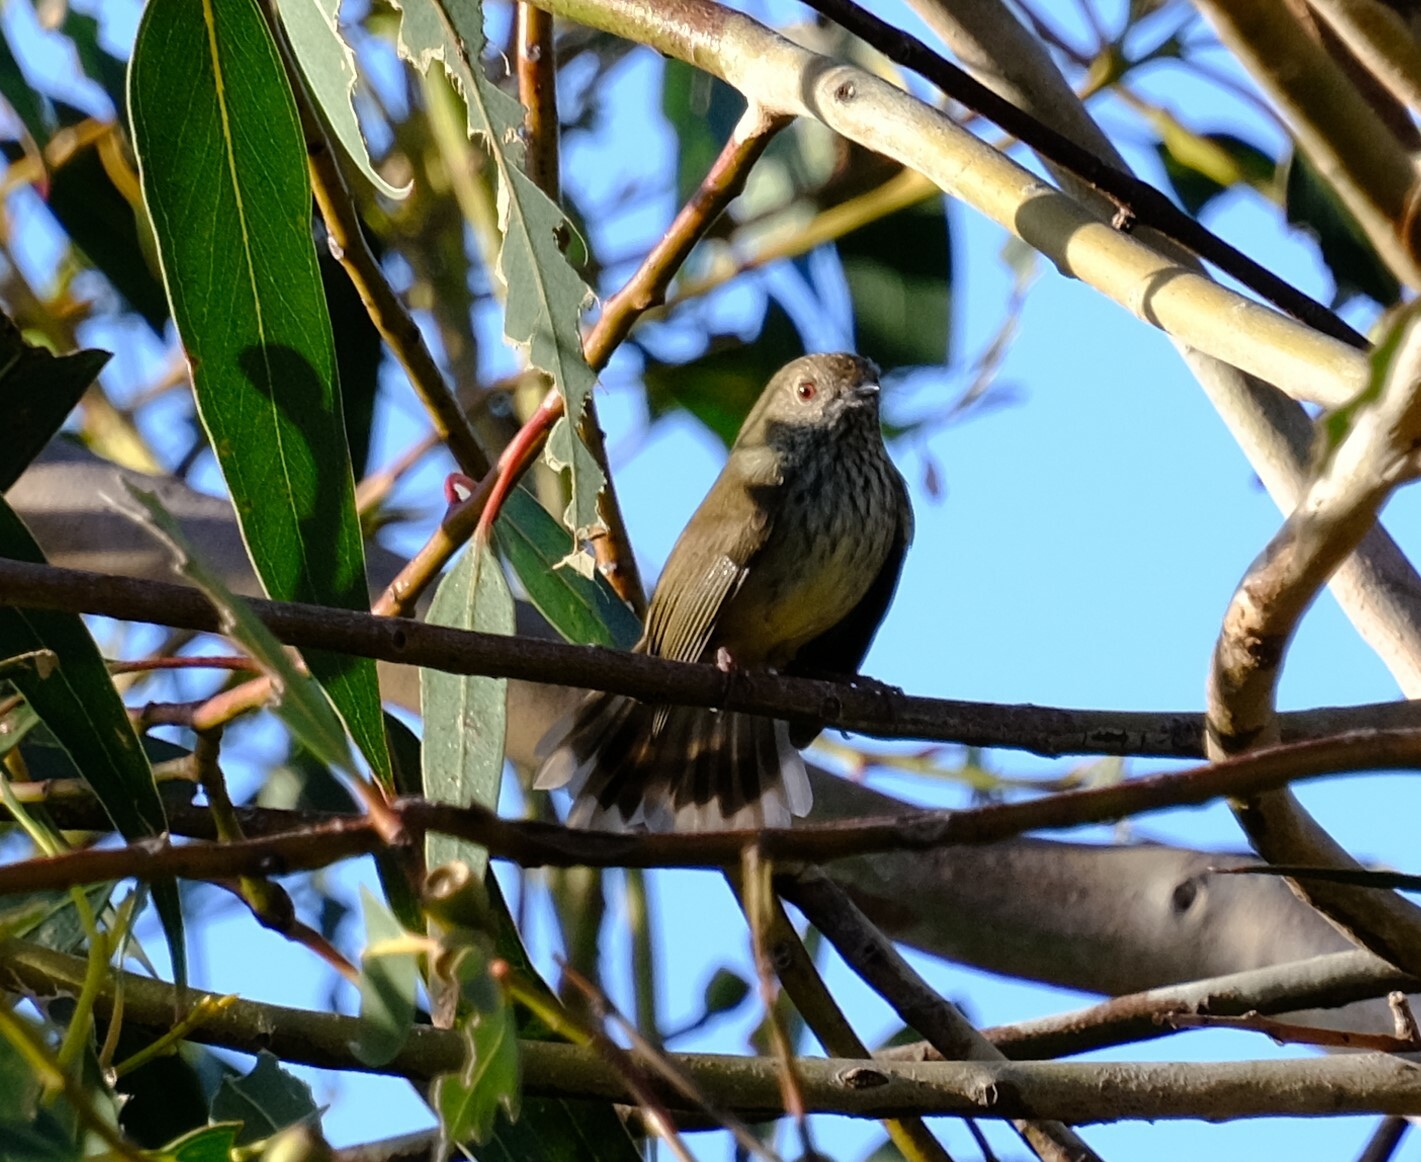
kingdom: Animalia
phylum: Chordata
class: Aves
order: Passeriformes
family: Acanthizidae
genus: Acanthiza
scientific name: Acanthiza pusilla
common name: Brown thornbill
